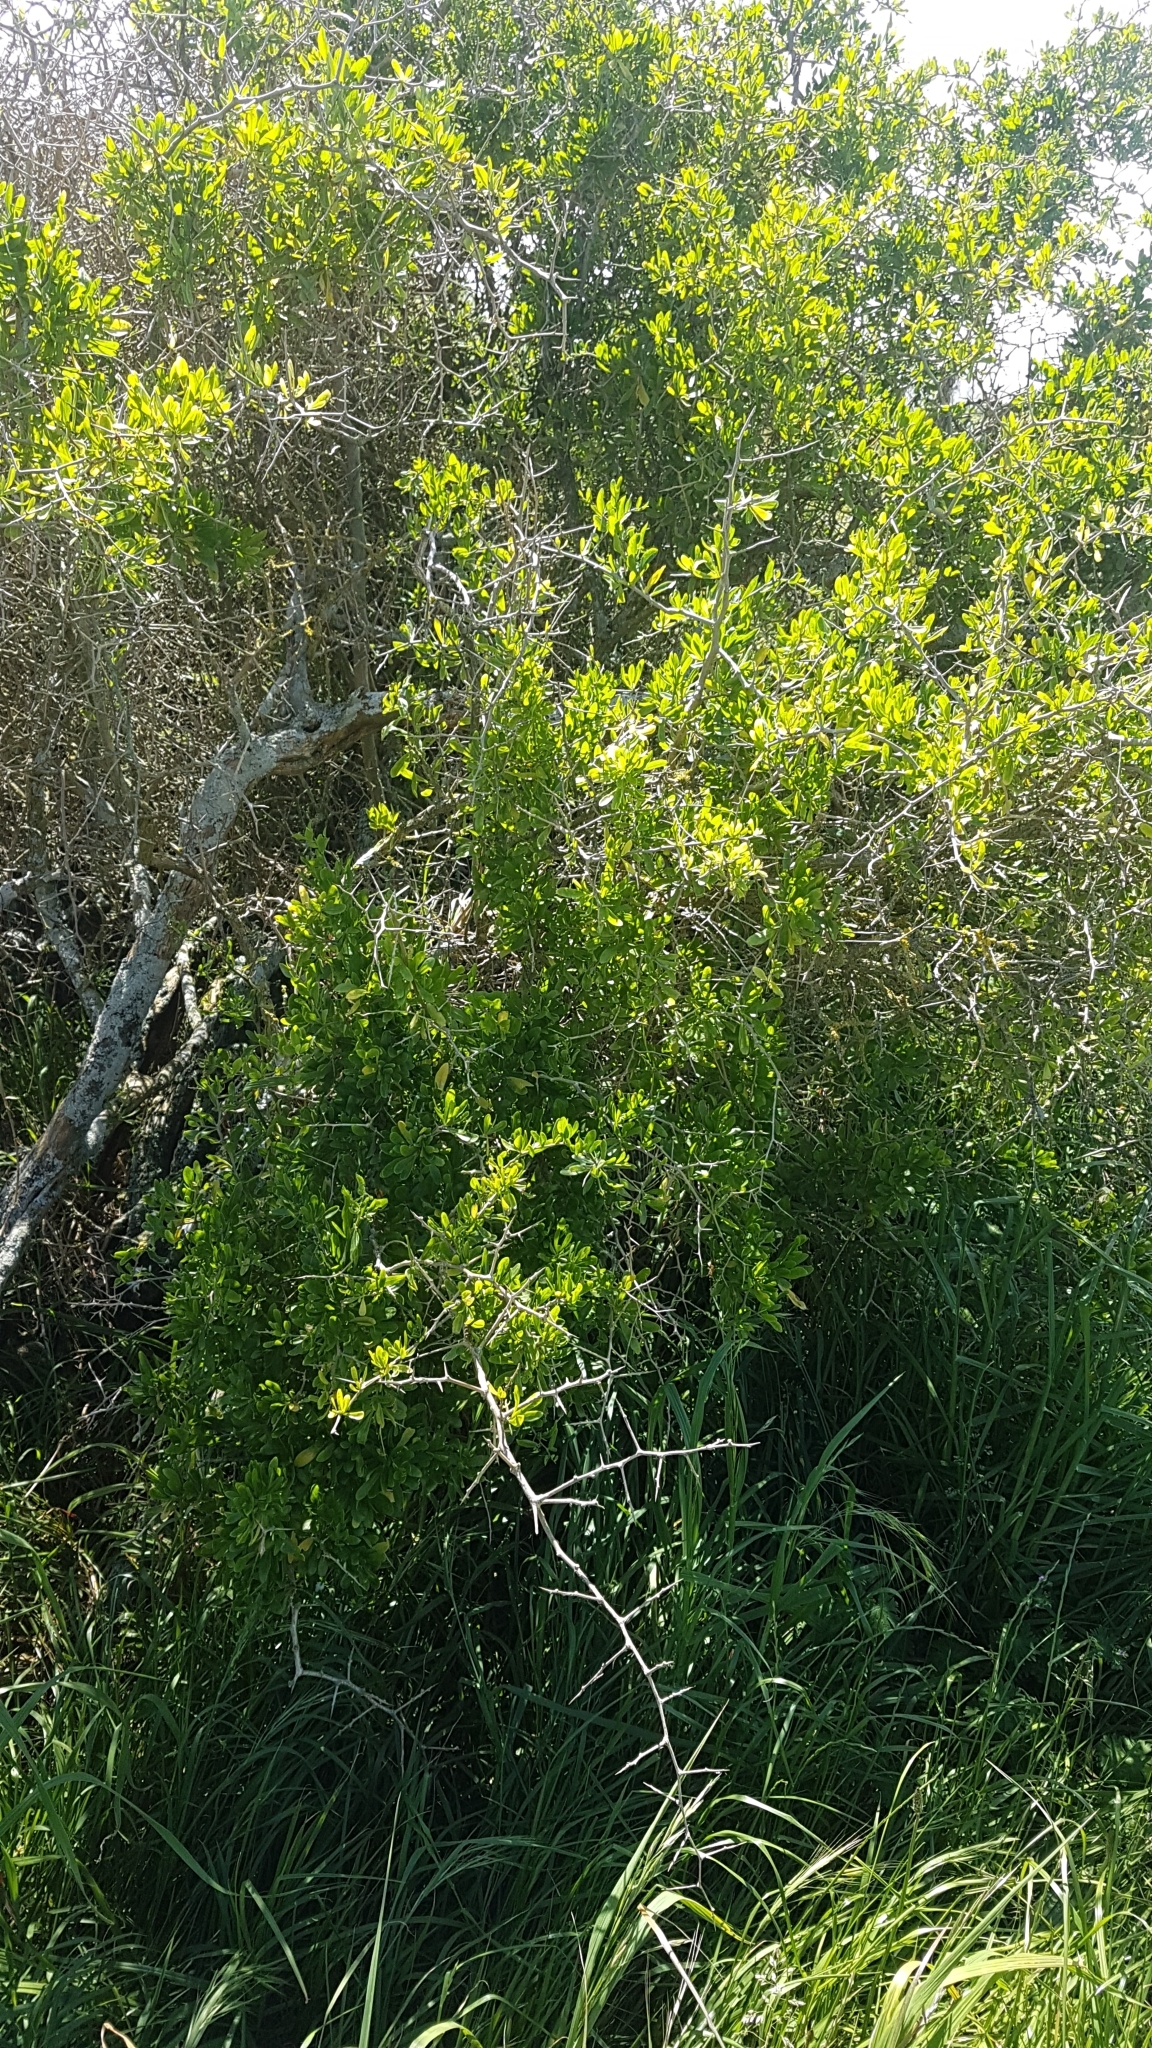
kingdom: Plantae
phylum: Tracheophyta
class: Magnoliopsida
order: Solanales
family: Solanaceae
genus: Lycium
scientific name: Lycium ferocissimum
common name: African boxthorn
